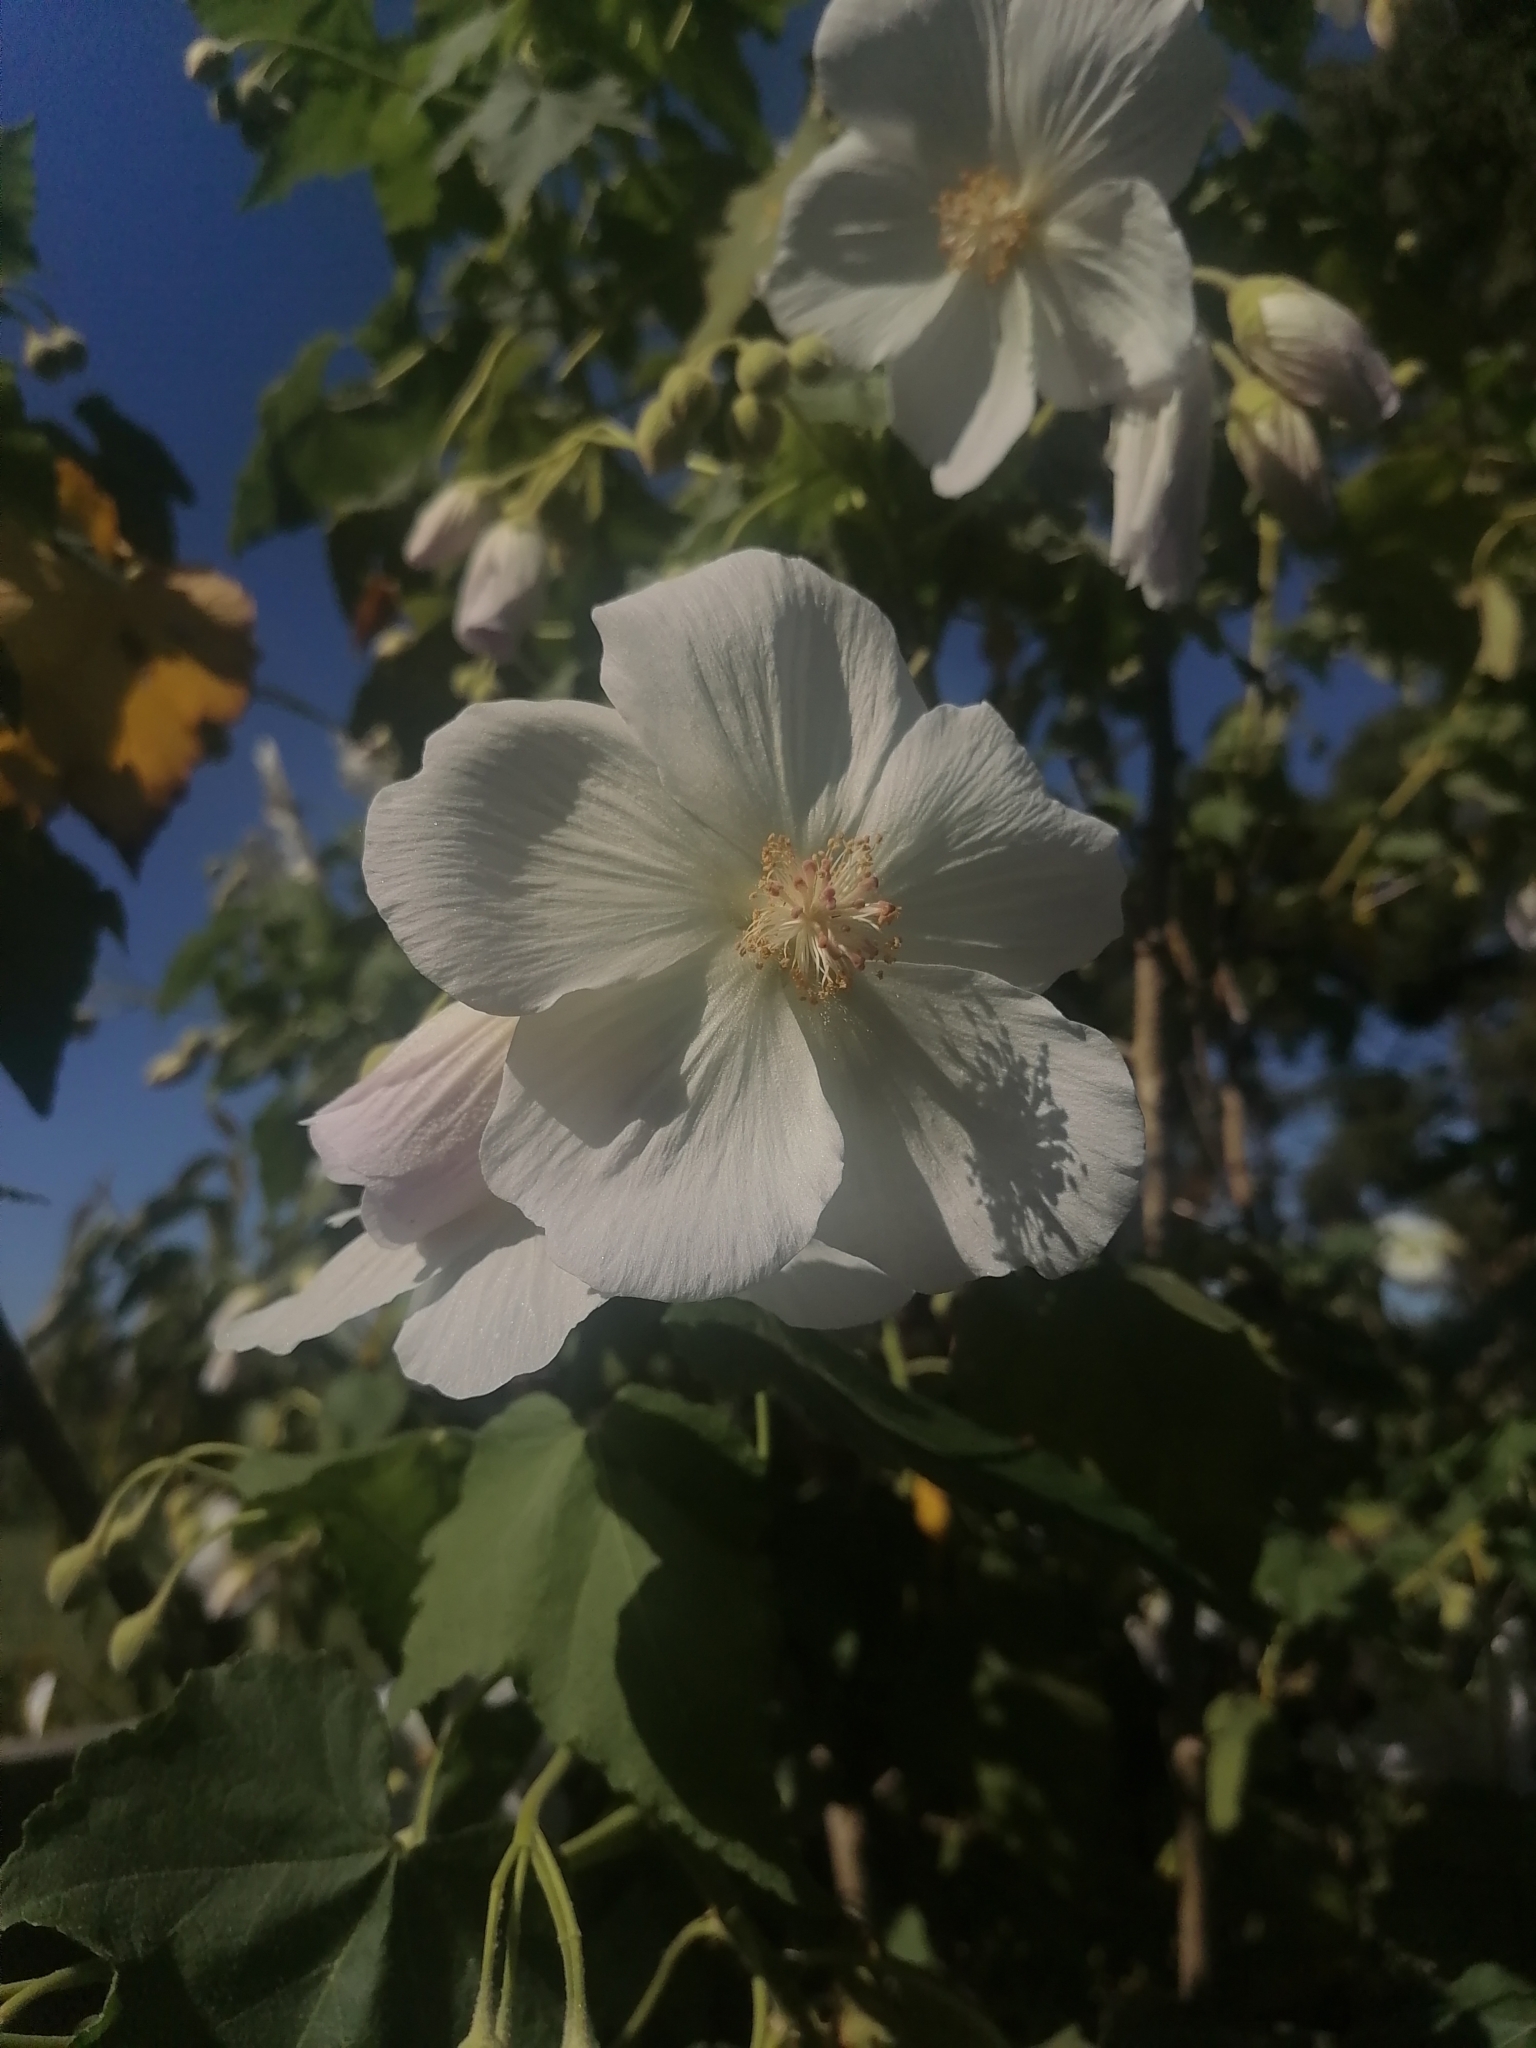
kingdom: Plantae
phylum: Tracheophyta
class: Magnoliopsida
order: Malvales
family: Malvaceae
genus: Corynabutilon
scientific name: Corynabutilon vitifolium
